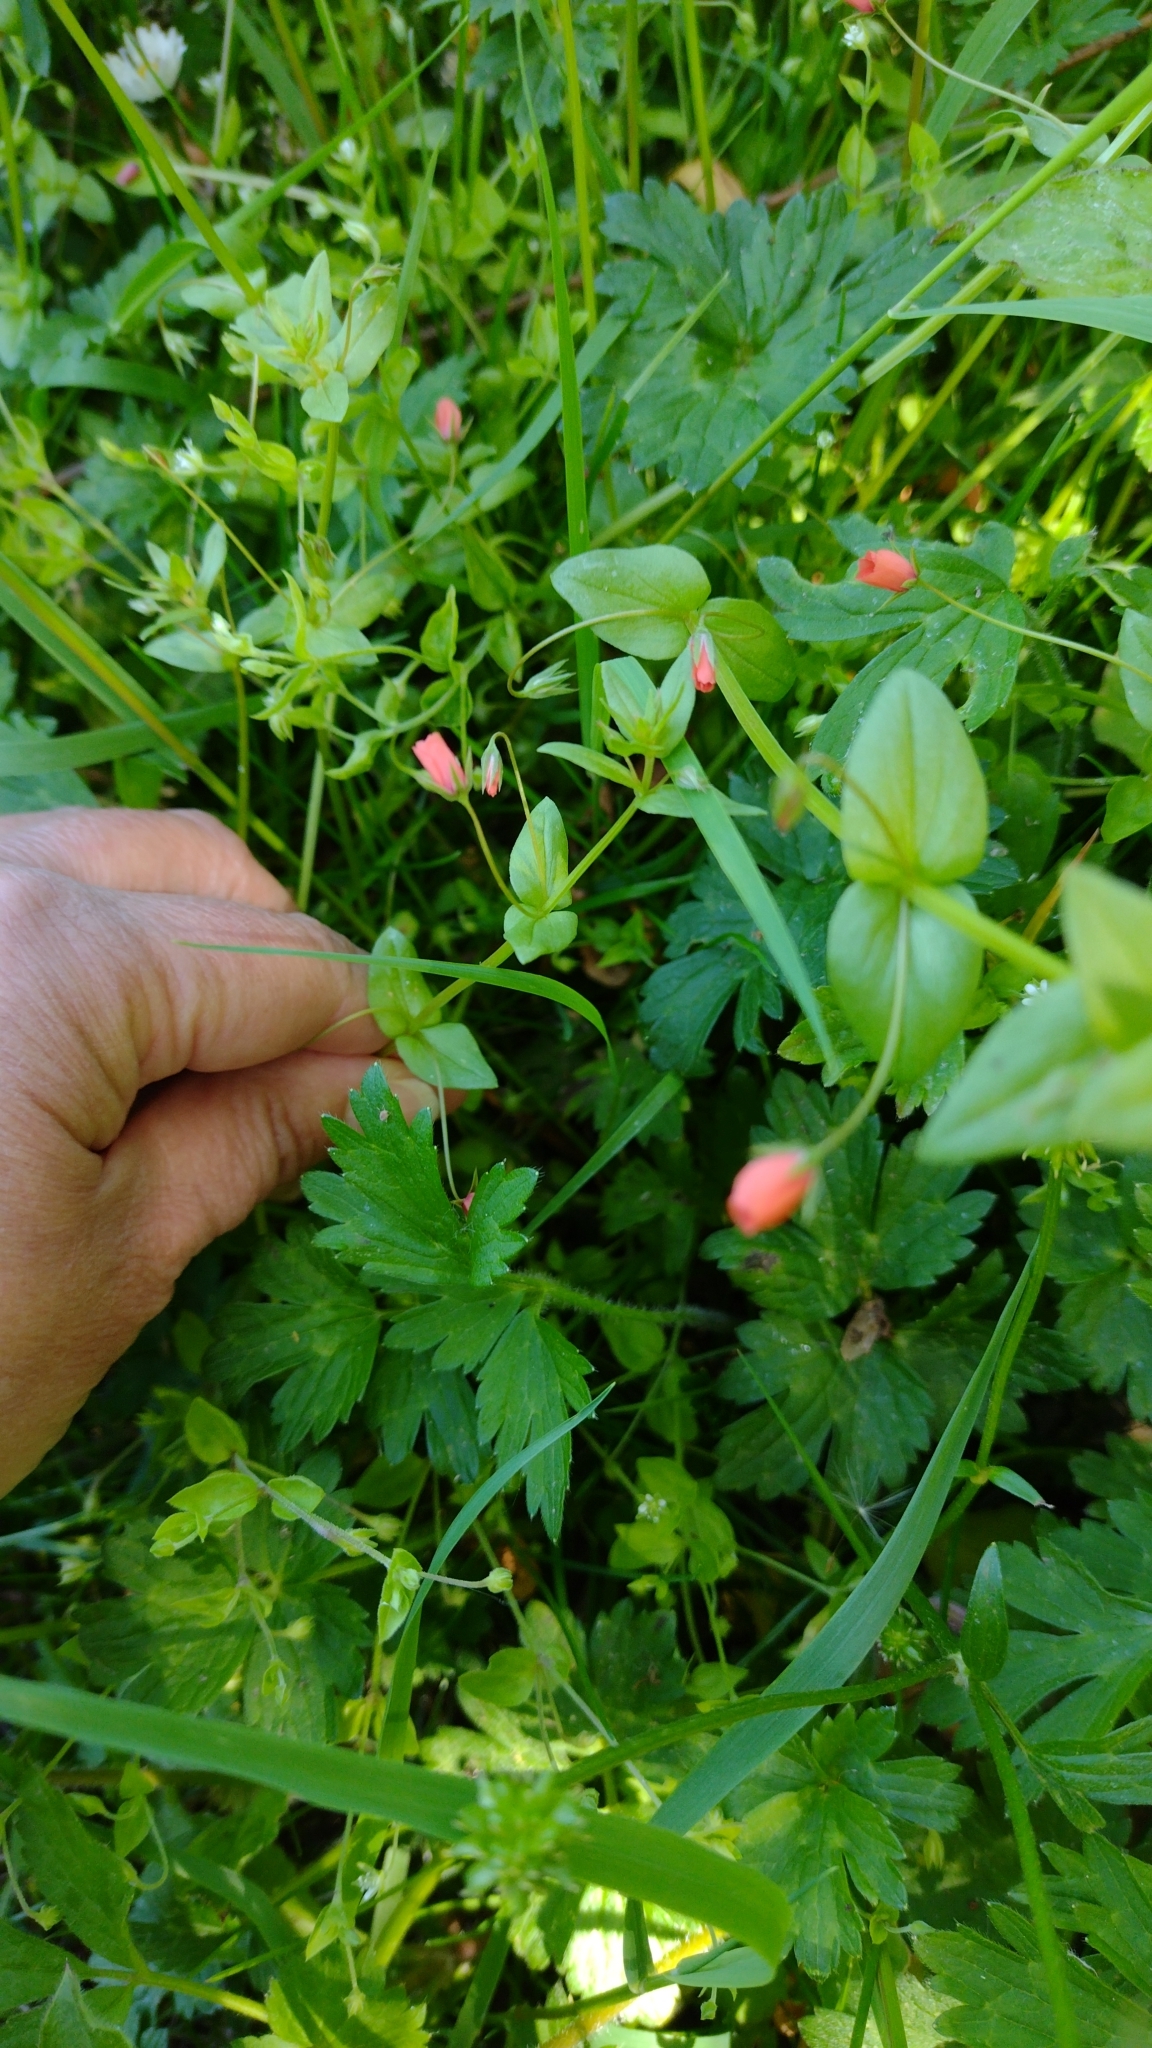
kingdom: Plantae
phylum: Tracheophyta
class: Magnoliopsida
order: Ericales
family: Primulaceae
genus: Lysimachia
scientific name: Lysimachia arvensis
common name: Scarlet pimpernel
